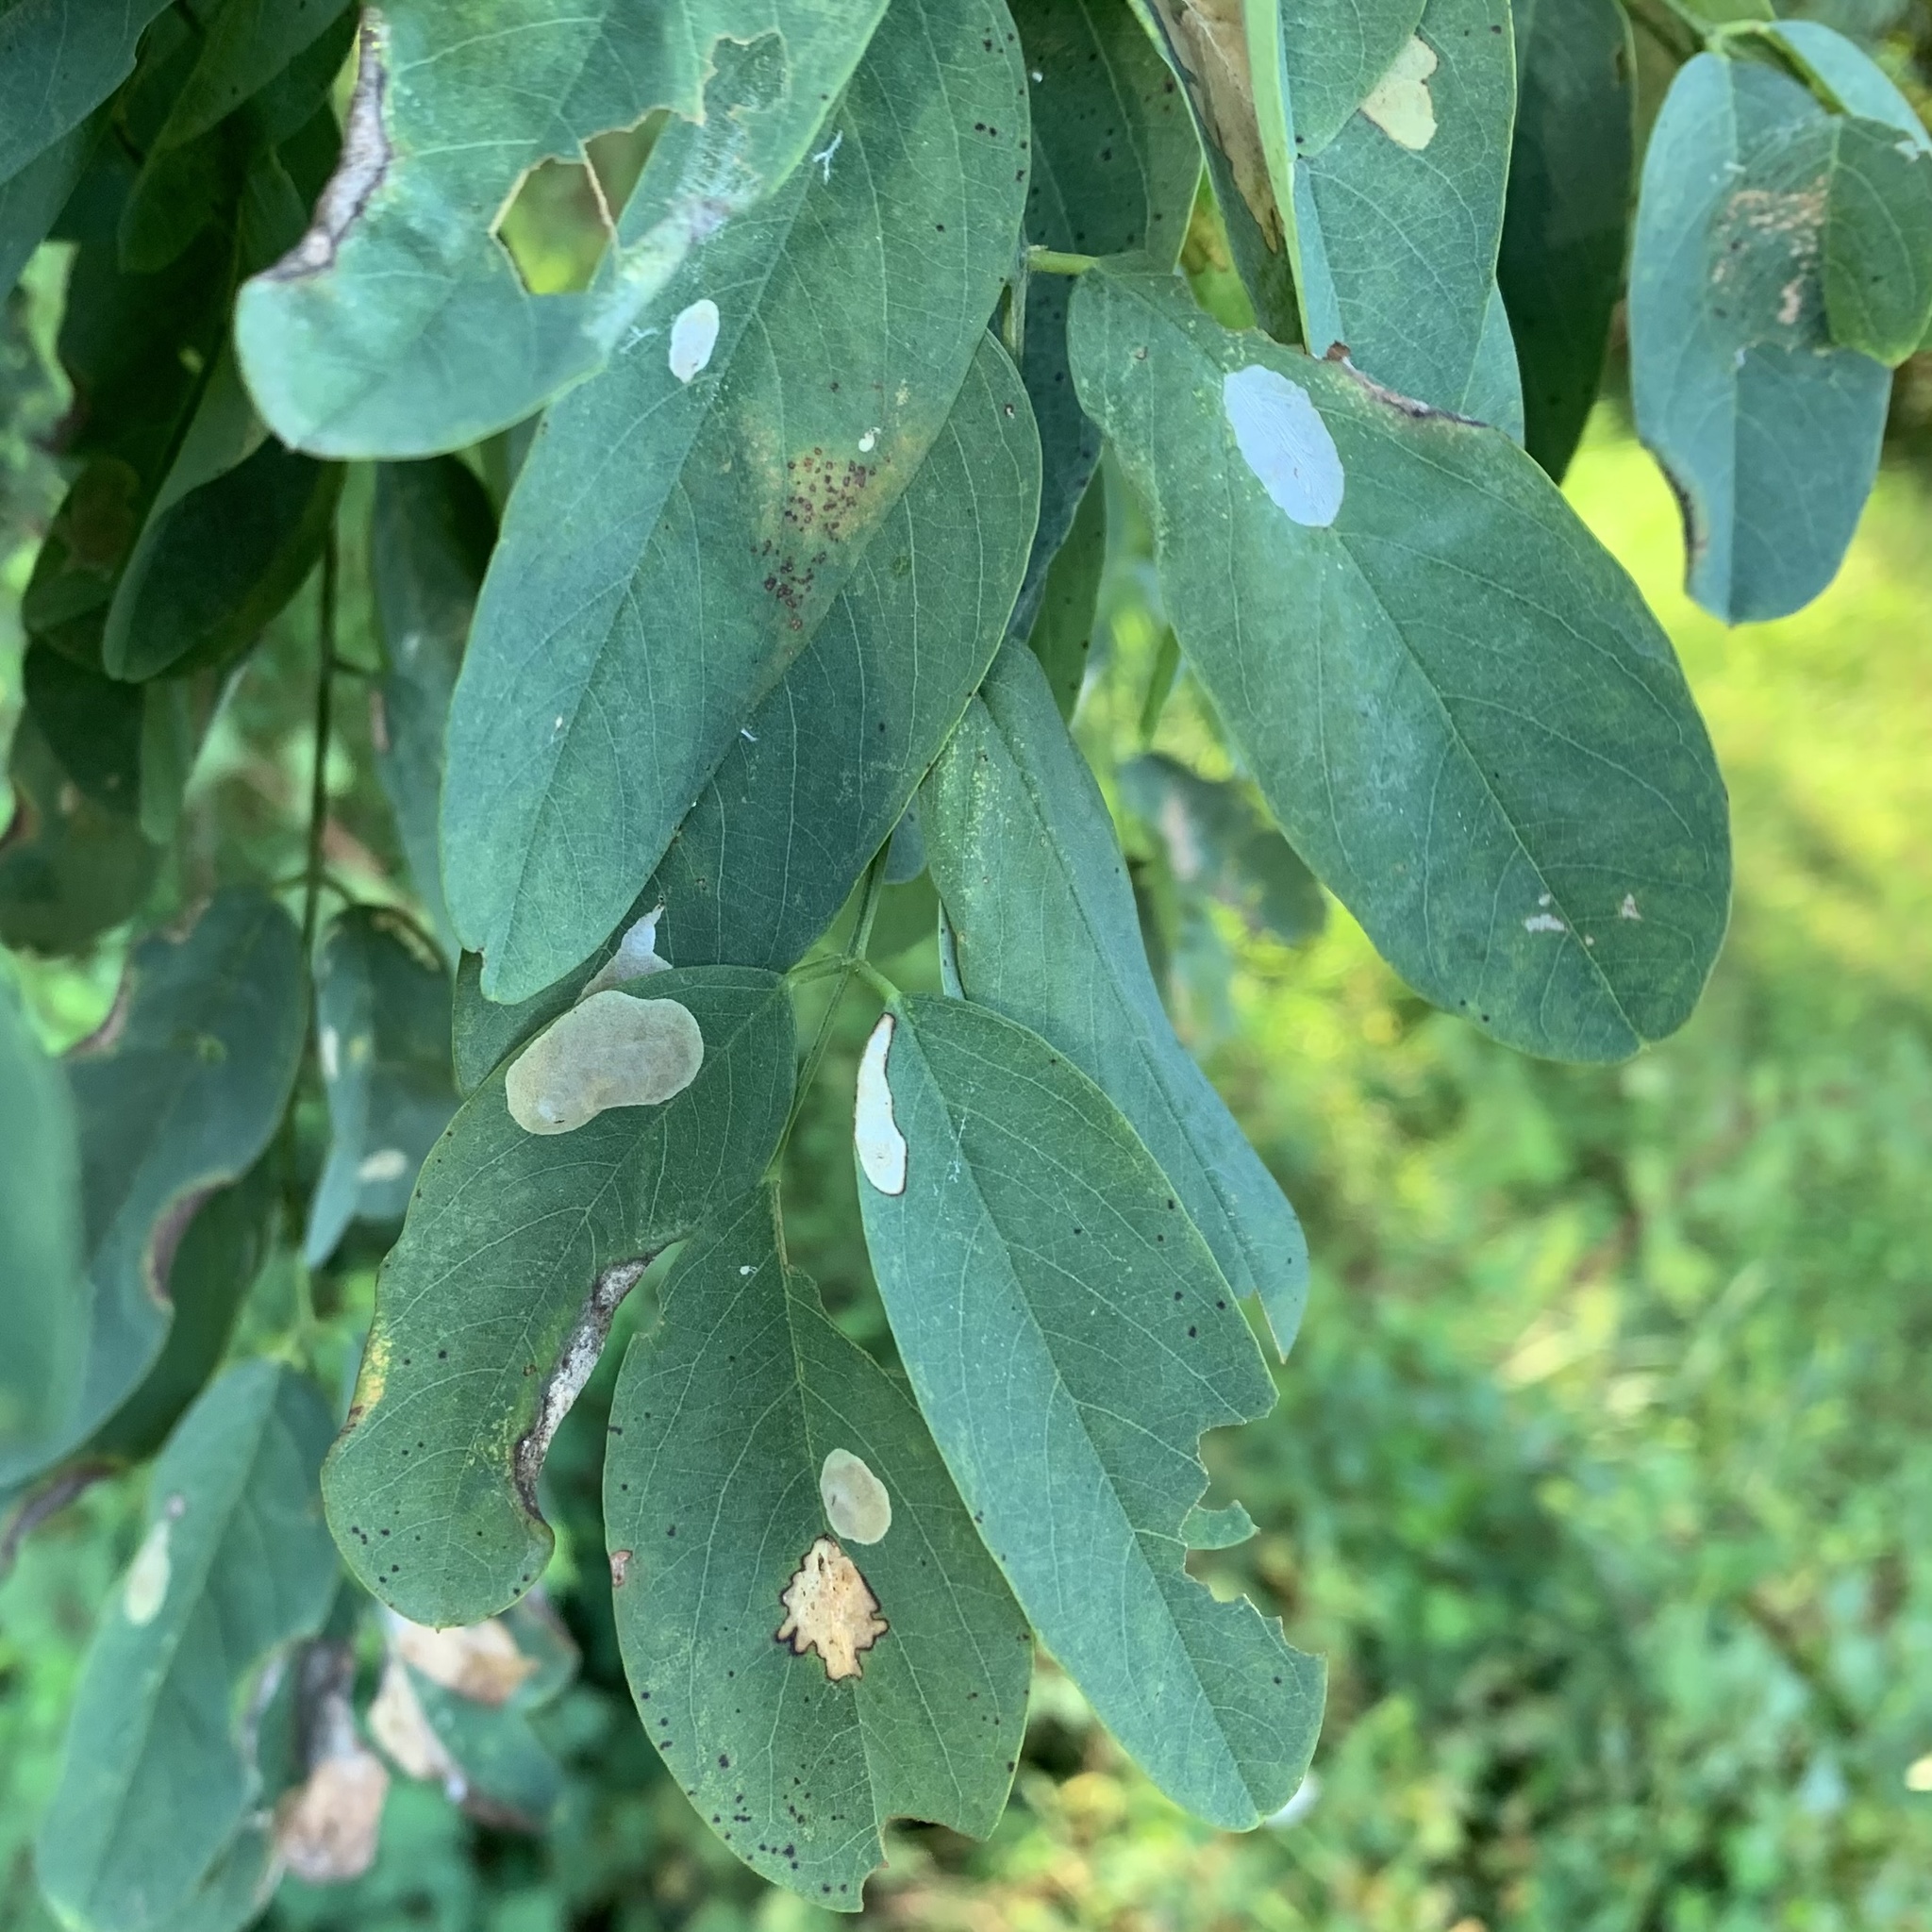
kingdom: Animalia
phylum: Arthropoda
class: Insecta
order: Lepidoptera
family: Gracillariidae
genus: Macrosaccus
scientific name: Macrosaccus robiniella
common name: Leaf blotch miner moth
